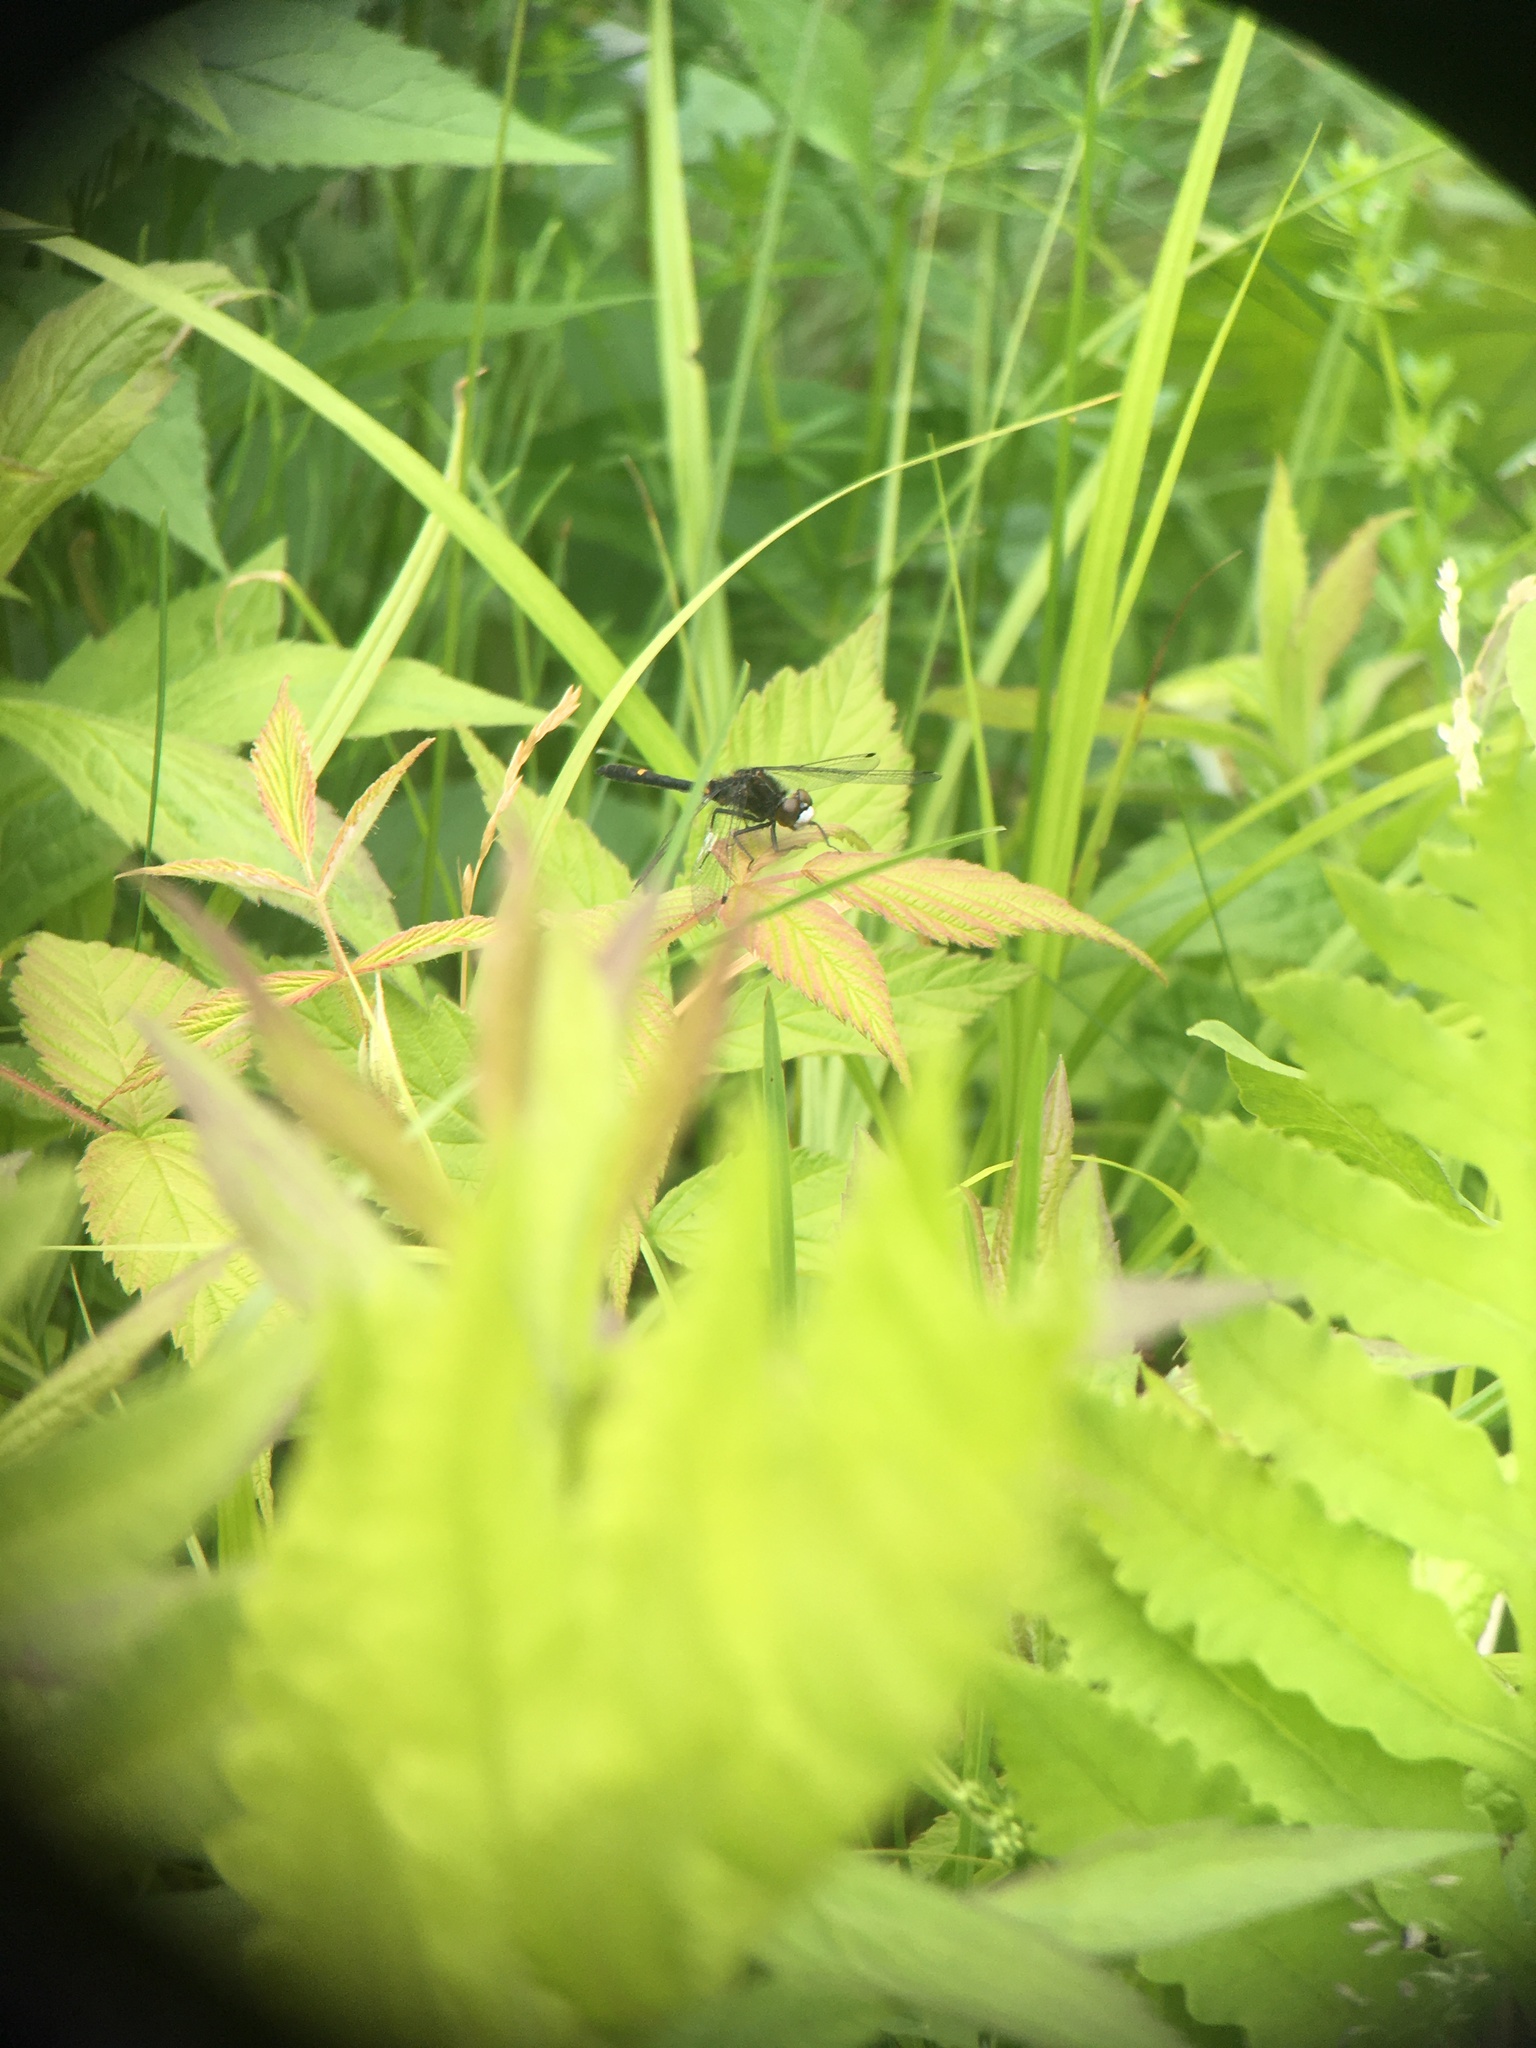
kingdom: Animalia
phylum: Arthropoda
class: Insecta
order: Odonata
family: Libellulidae
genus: Leucorrhinia
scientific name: Leucorrhinia intacta
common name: Dot-tailed whiteface
